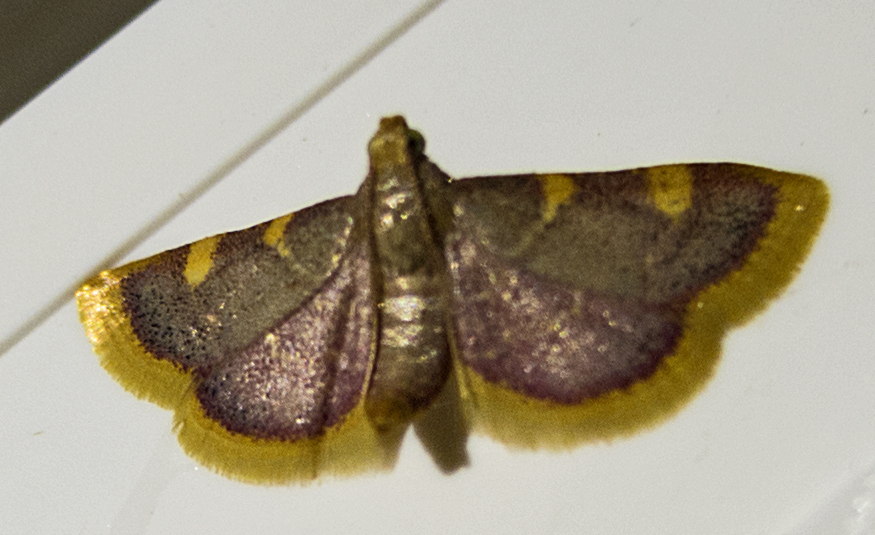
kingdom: Animalia
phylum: Arthropoda
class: Insecta
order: Lepidoptera
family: Pyralidae
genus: Hypsopygia
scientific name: Hypsopygia costalis
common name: Gold triangle
